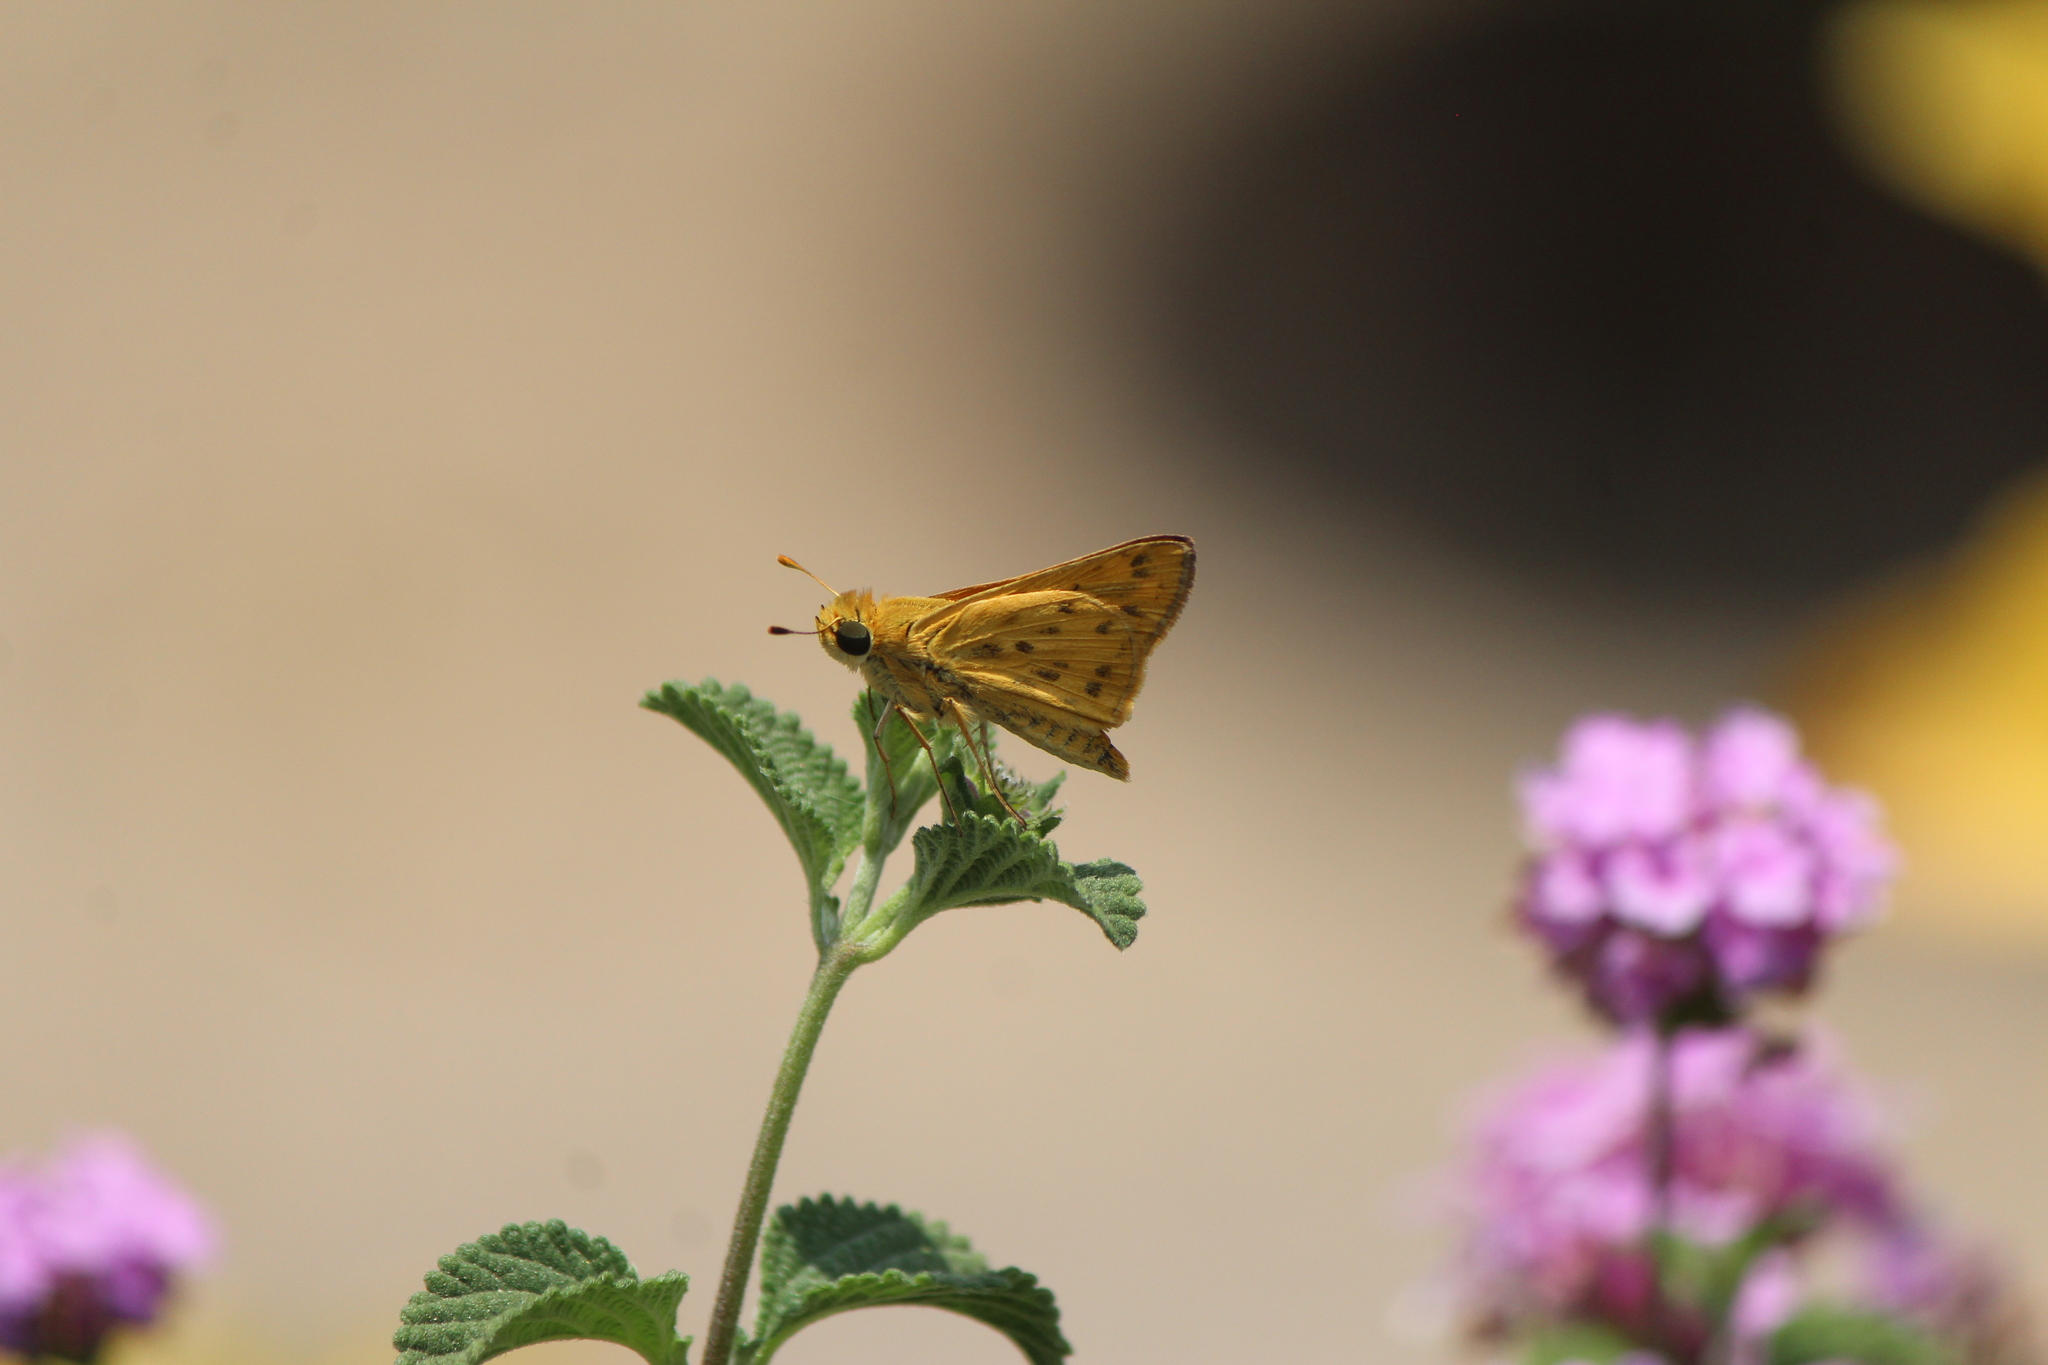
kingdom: Animalia
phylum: Arthropoda
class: Insecta
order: Lepidoptera
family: Hesperiidae
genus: Hylephila
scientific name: Hylephila phyleus
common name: Fiery skipper
